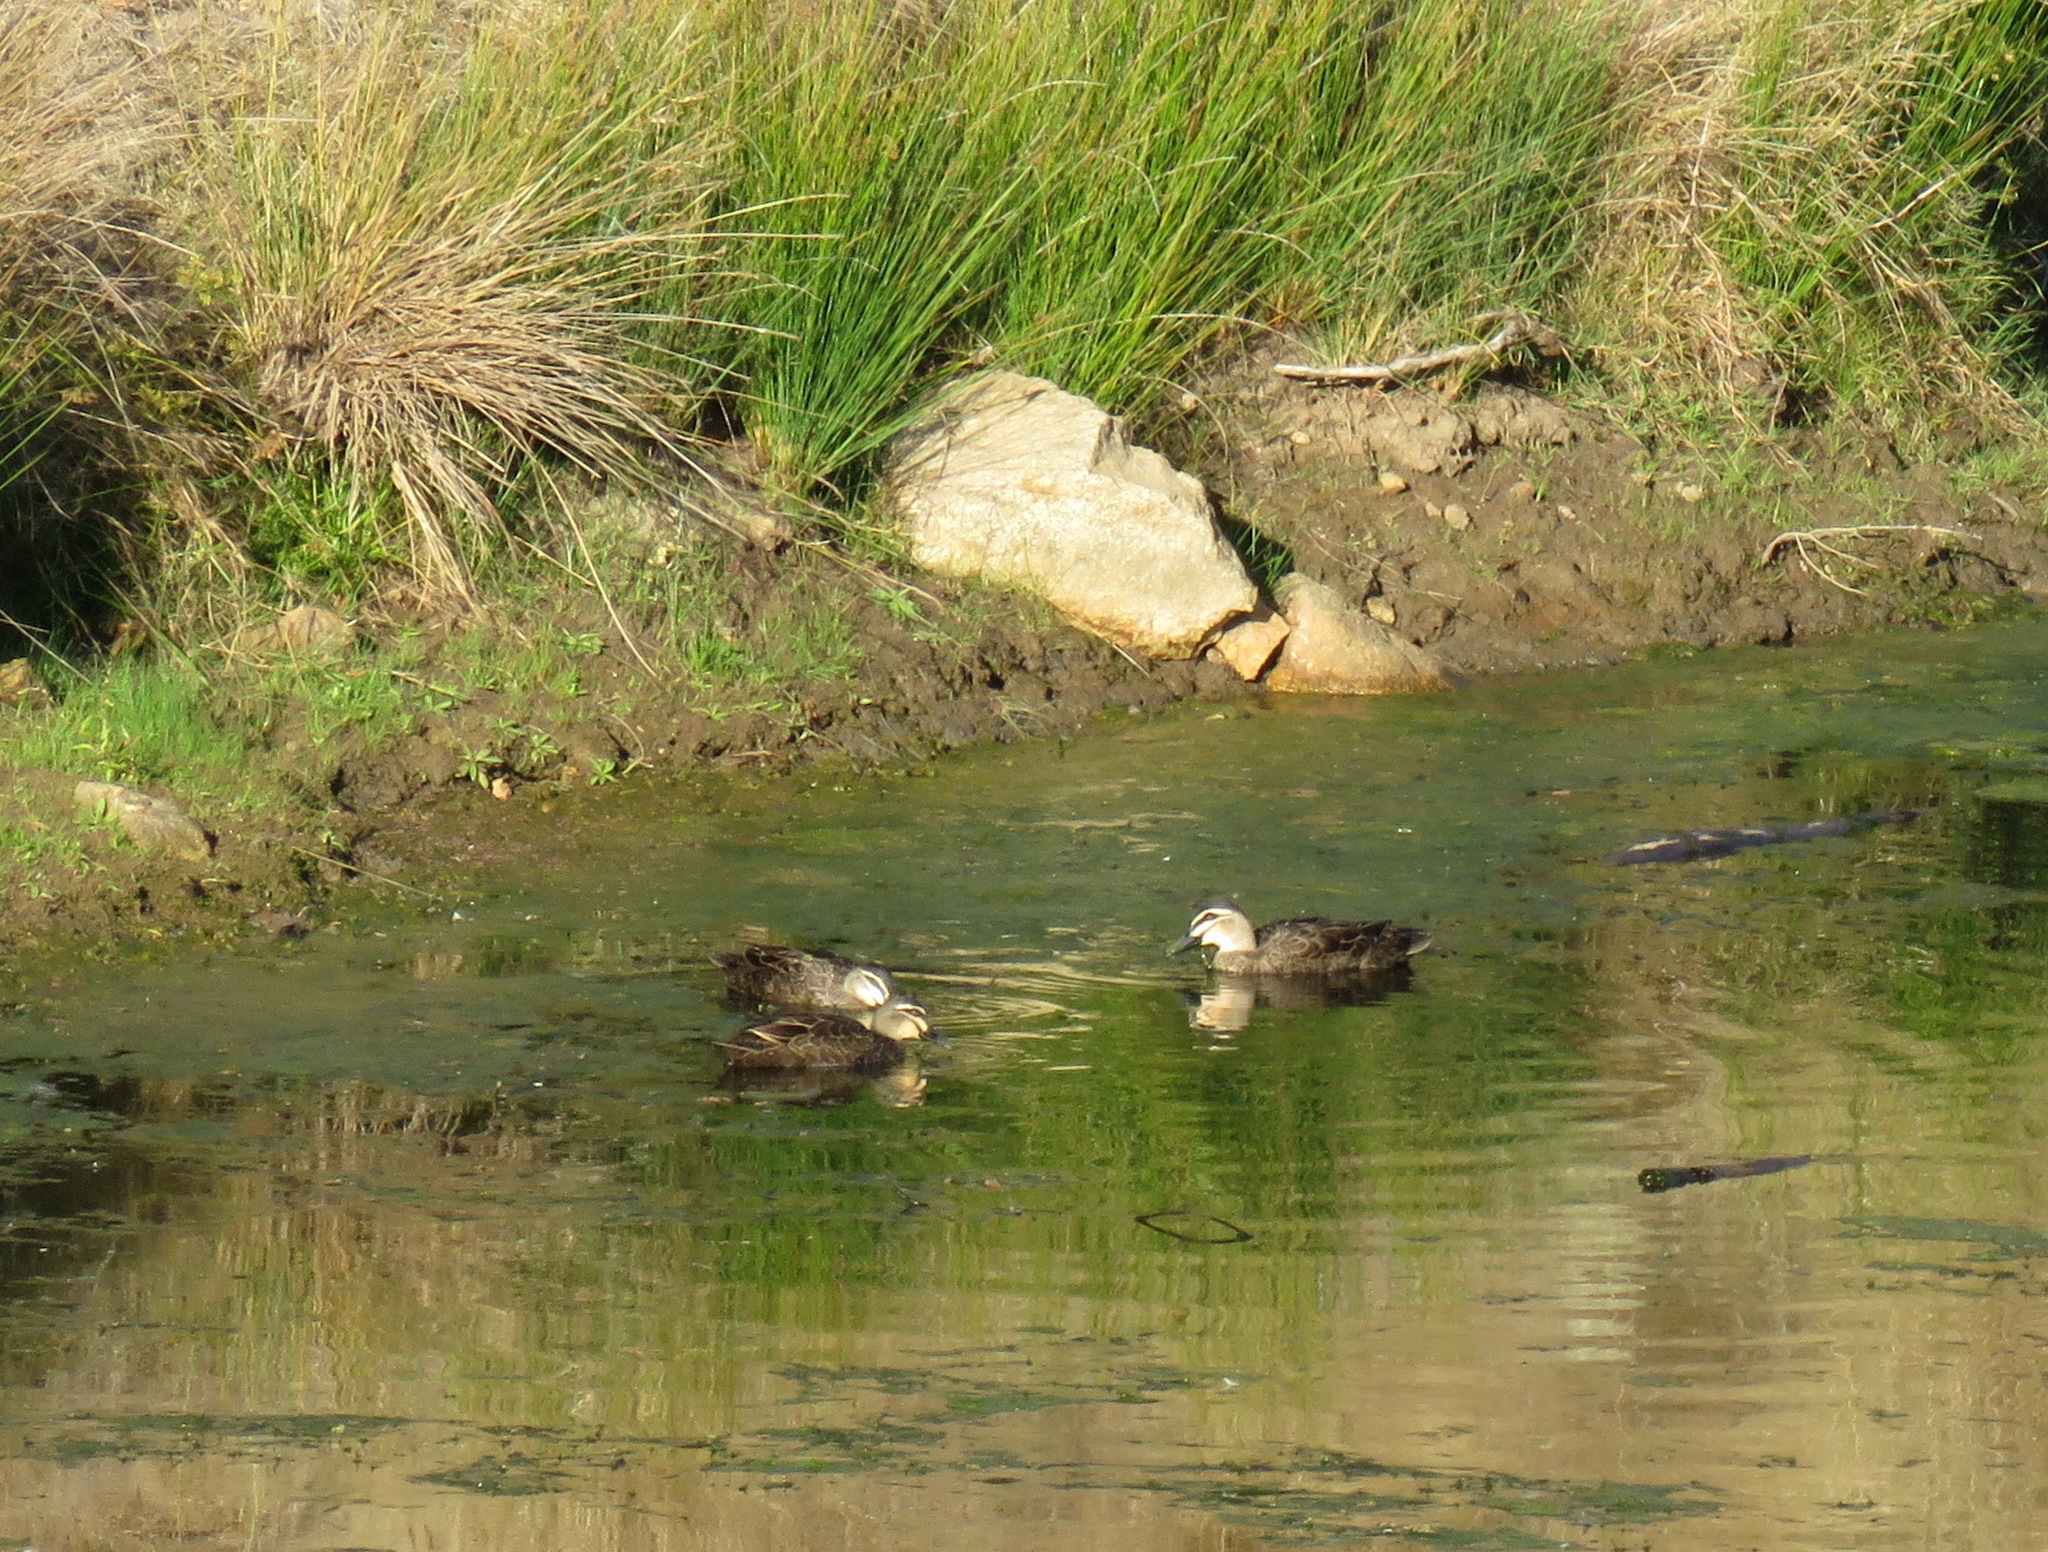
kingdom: Animalia
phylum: Chordata
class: Aves
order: Anseriformes
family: Anatidae
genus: Anas
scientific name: Anas superciliosa
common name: Pacific black duck
